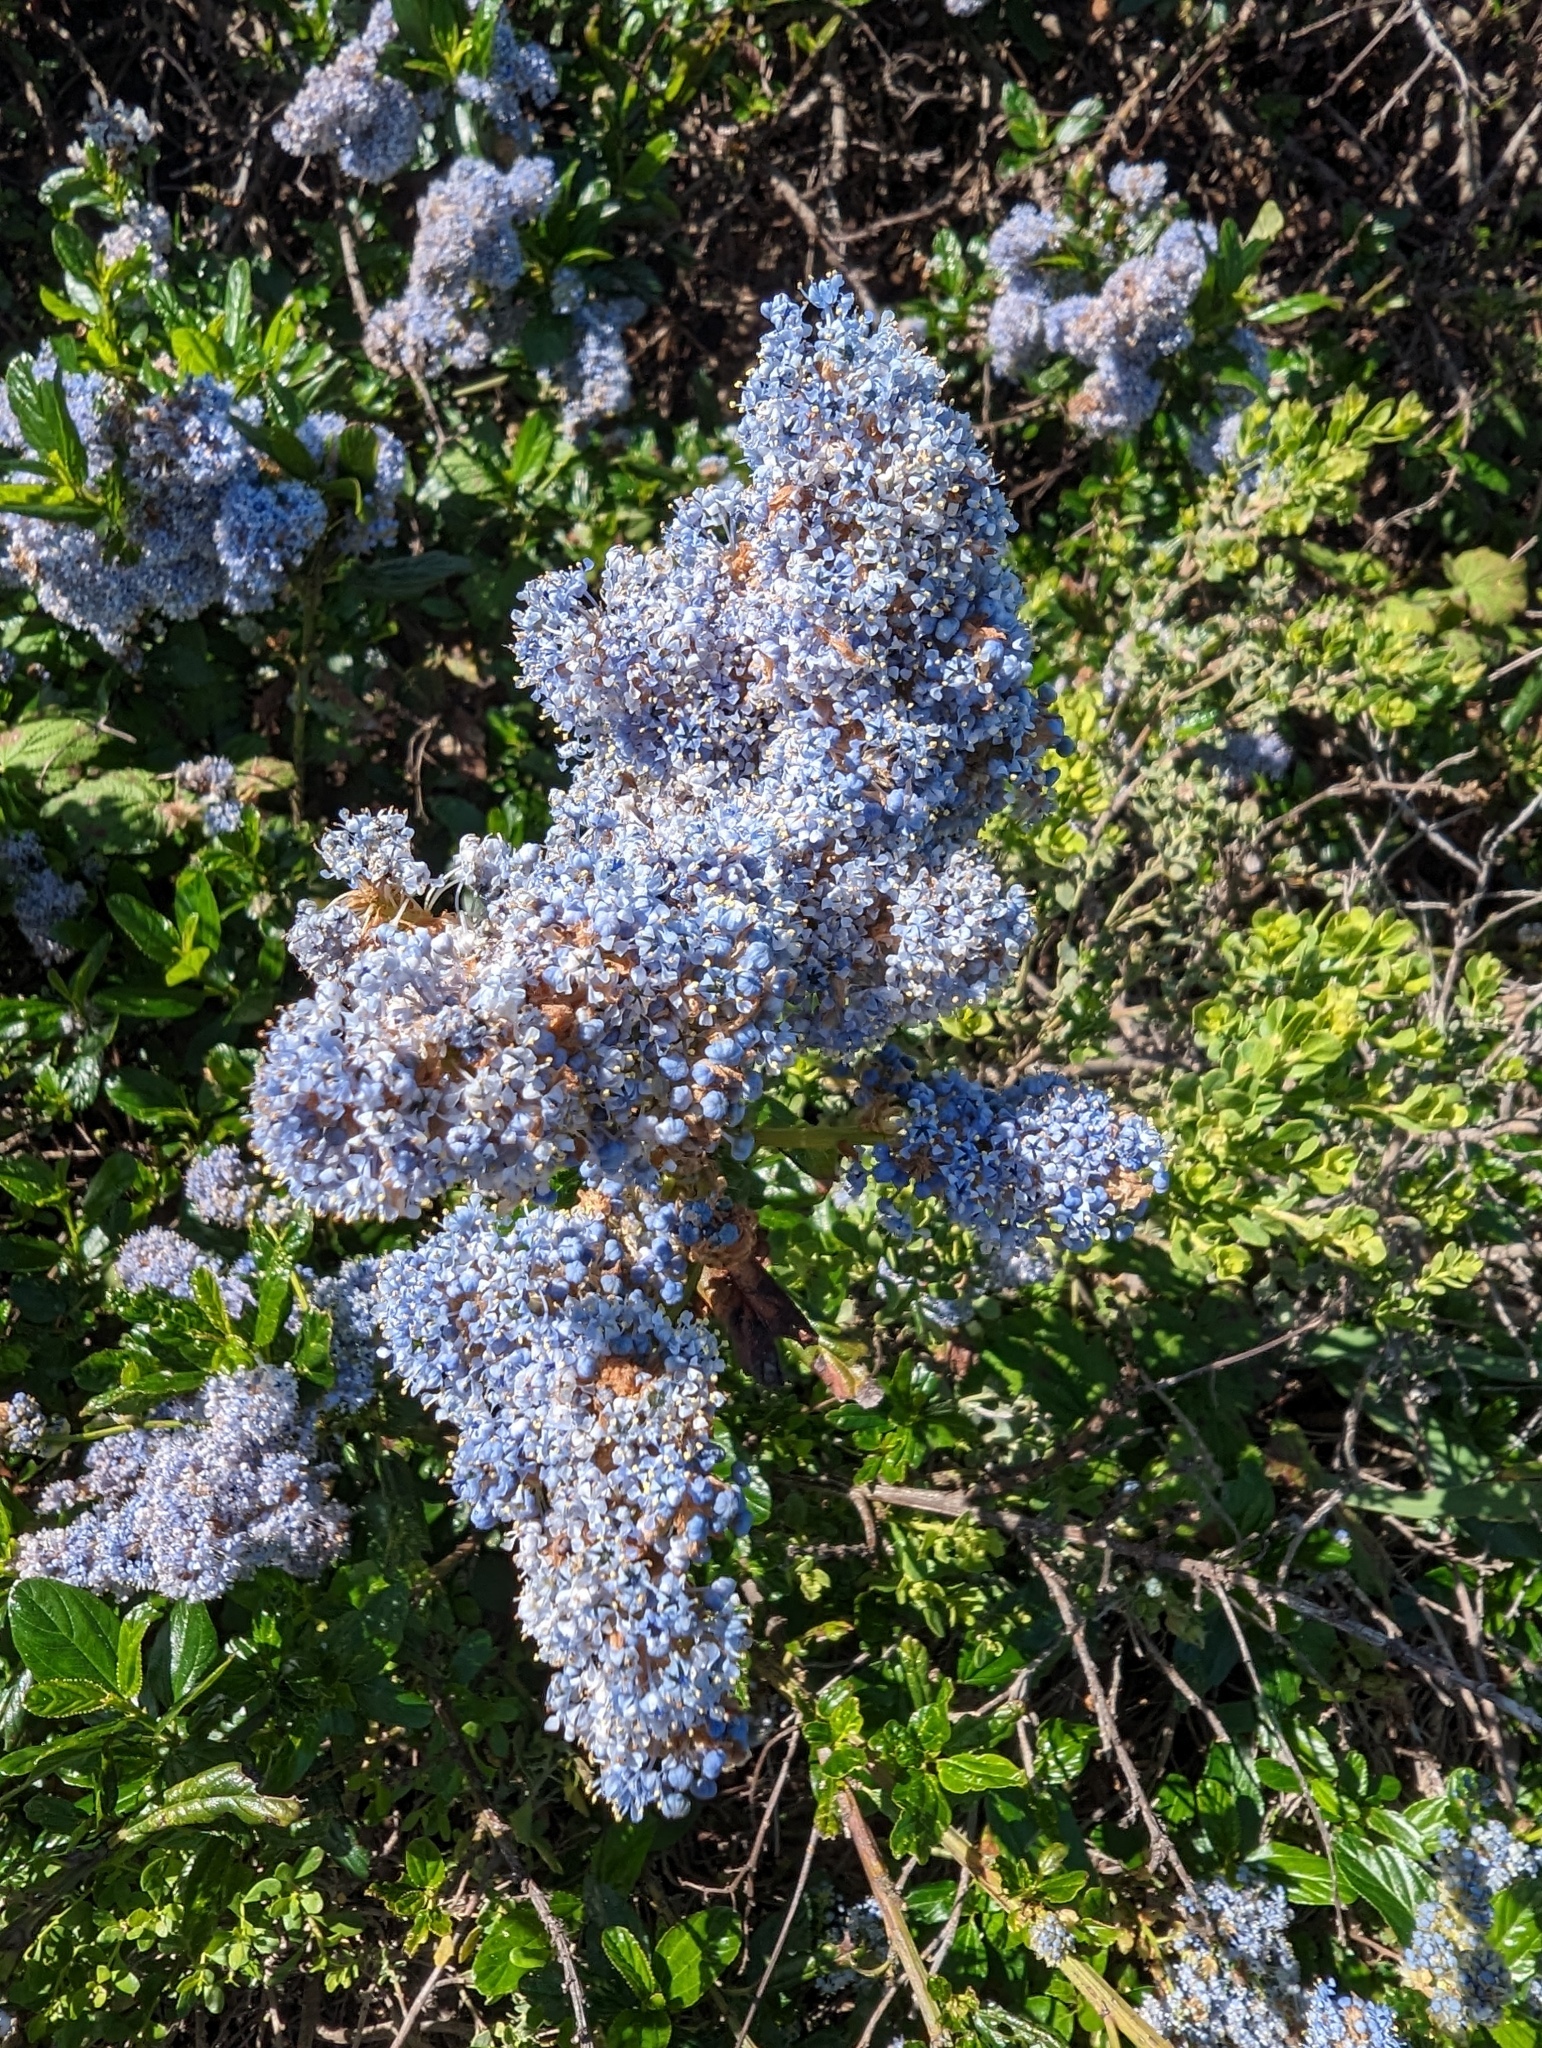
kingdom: Plantae
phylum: Tracheophyta
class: Magnoliopsida
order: Rosales
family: Rhamnaceae
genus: Ceanothus
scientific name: Ceanothus thyrsiflorus
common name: California-lilac
